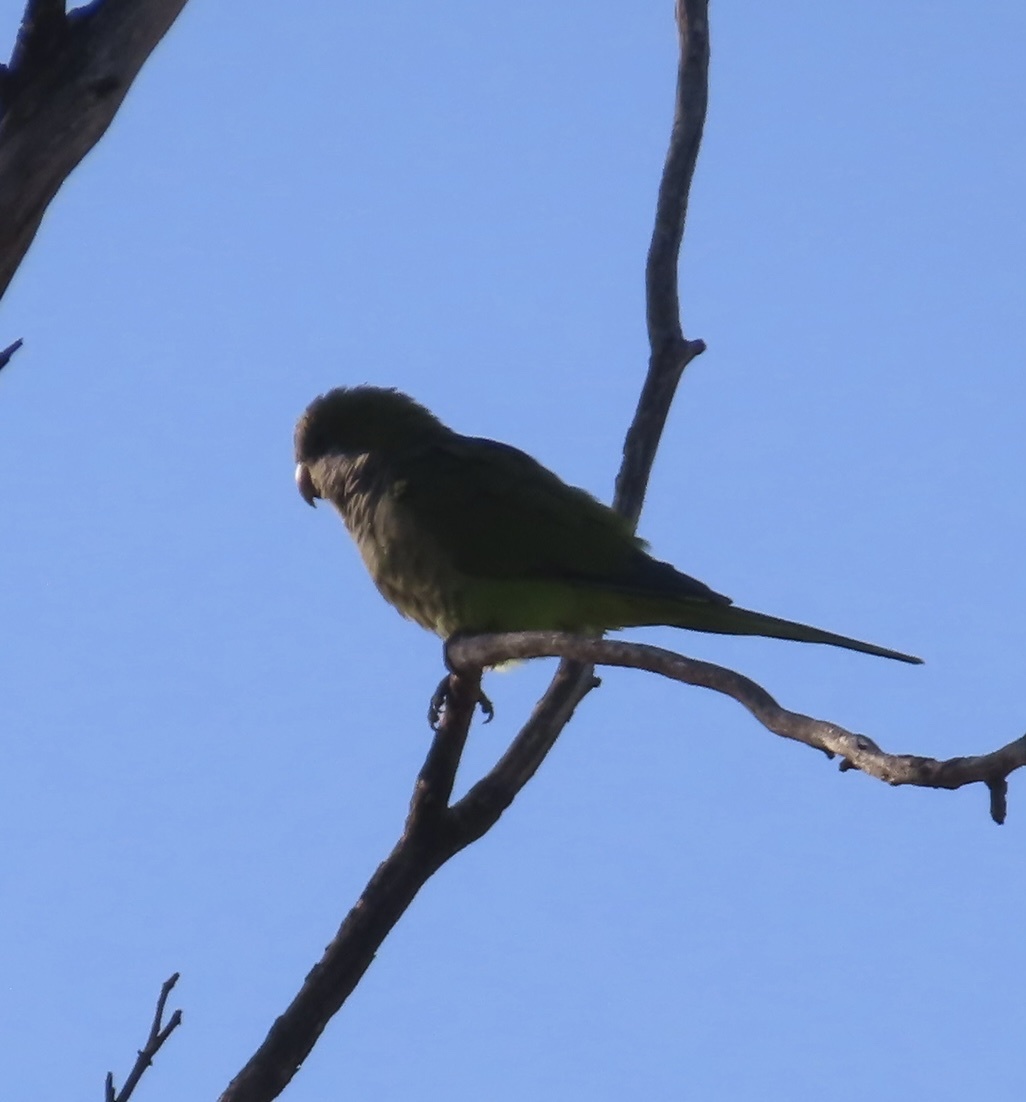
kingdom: Animalia
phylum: Chordata
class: Aves
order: Psittaciformes
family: Psittacidae
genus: Myiopsitta
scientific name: Myiopsitta monachus
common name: Monk parakeet
